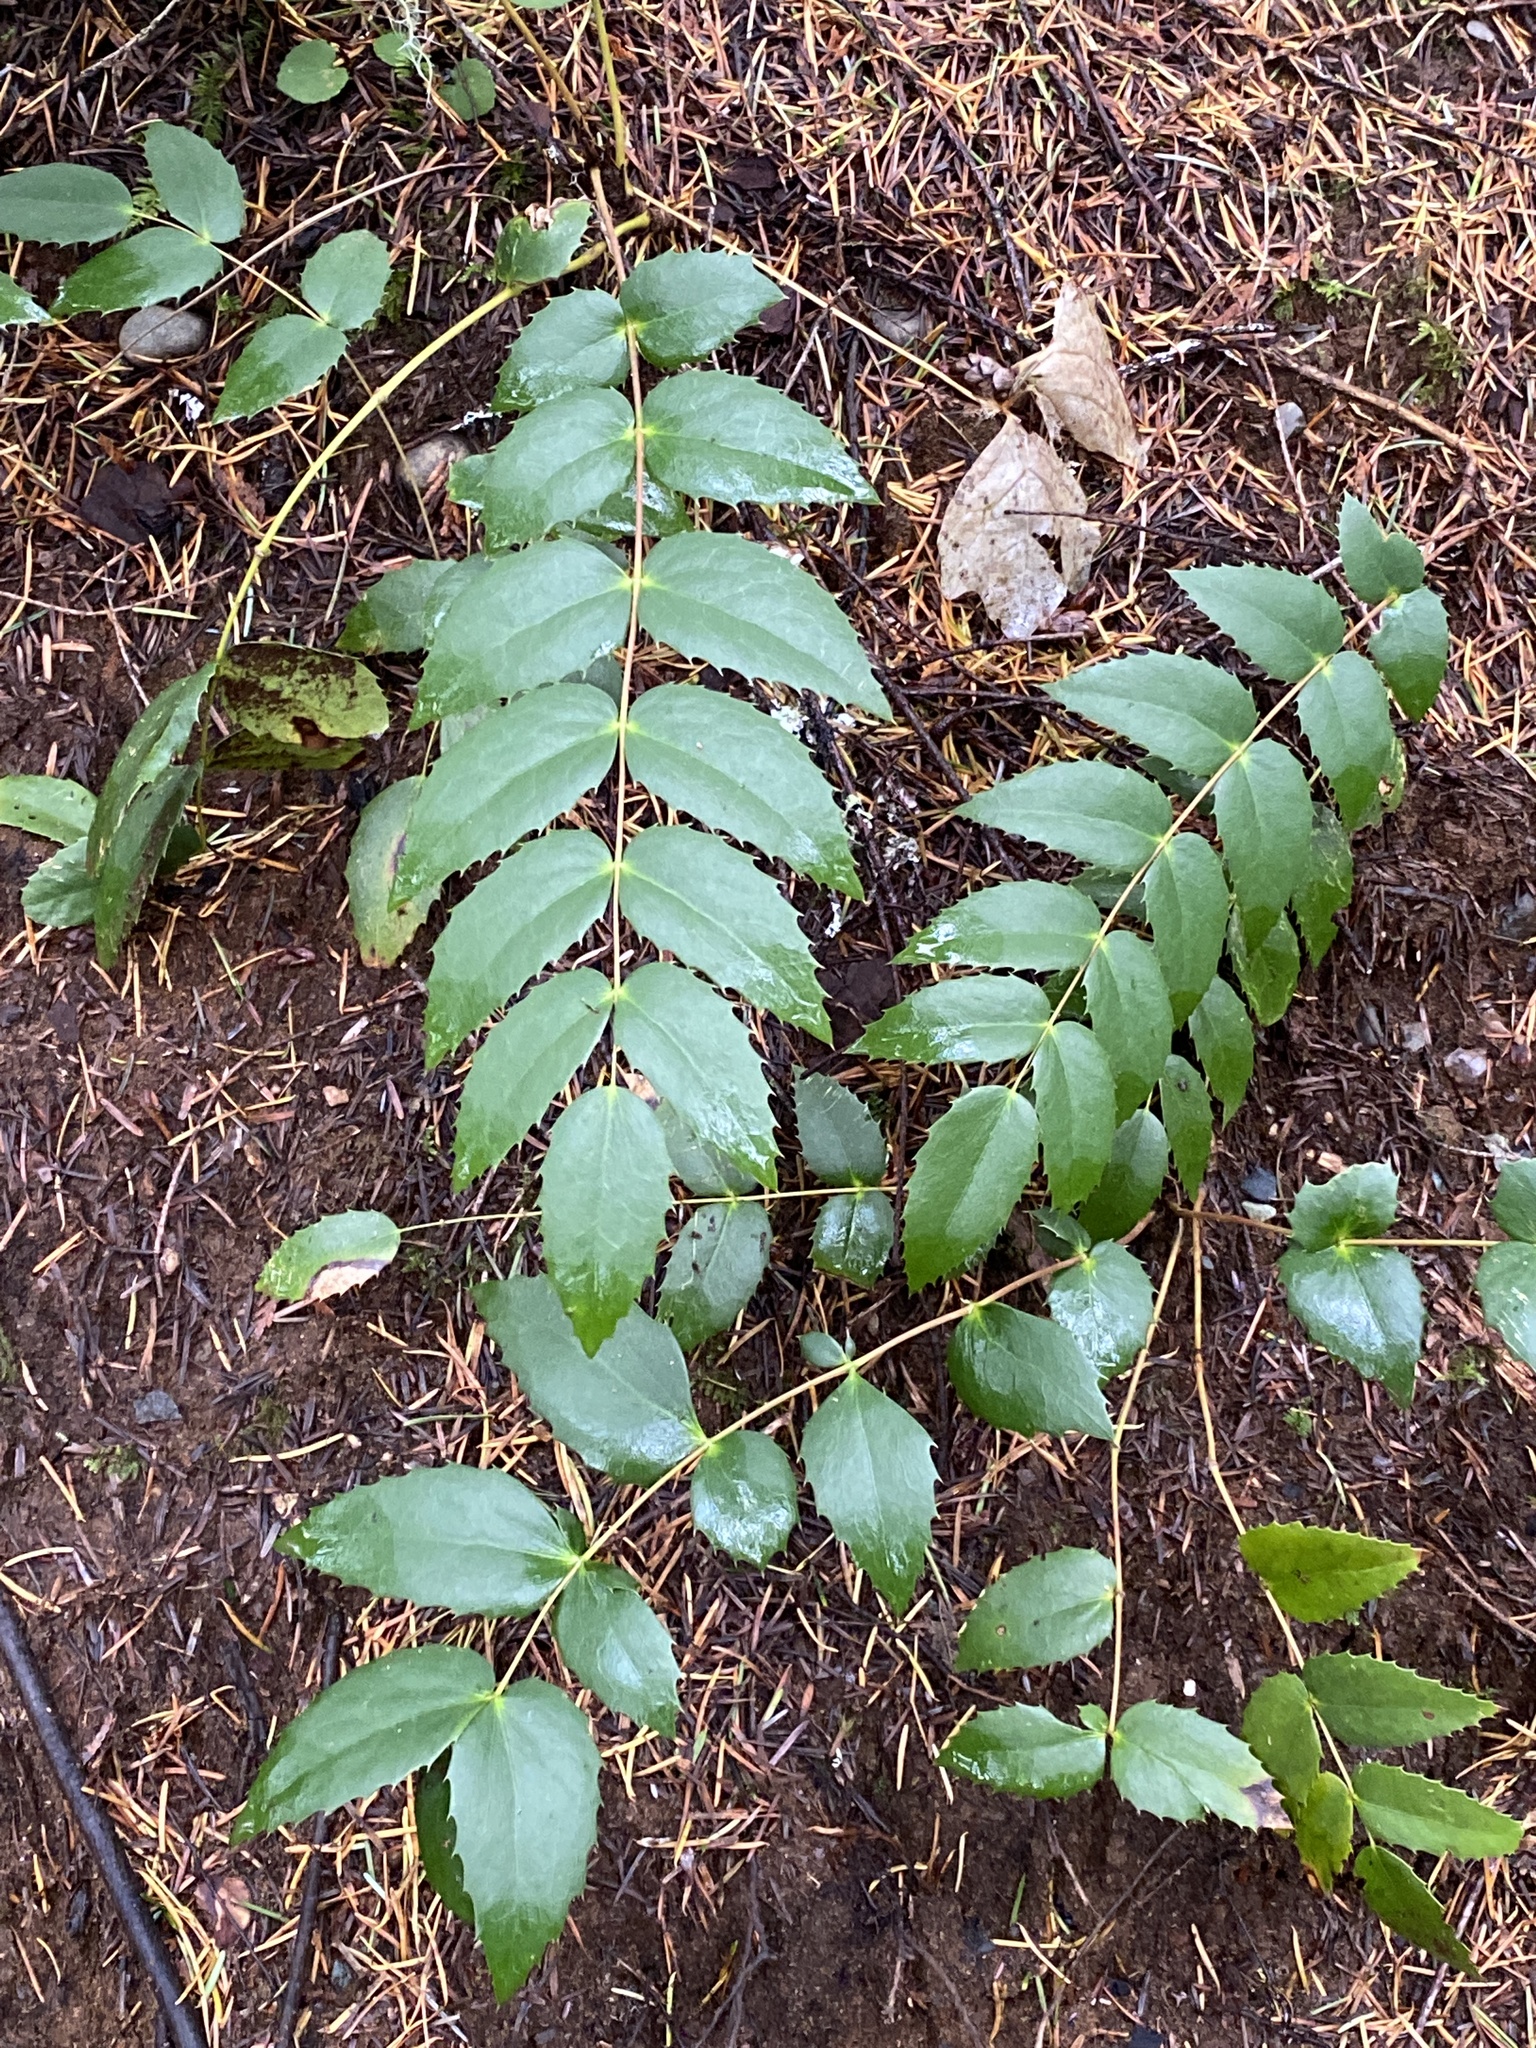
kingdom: Plantae
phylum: Tracheophyta
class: Magnoliopsida
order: Ranunculales
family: Berberidaceae
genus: Mahonia
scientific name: Mahonia nervosa
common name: Cascade oregon-grape
